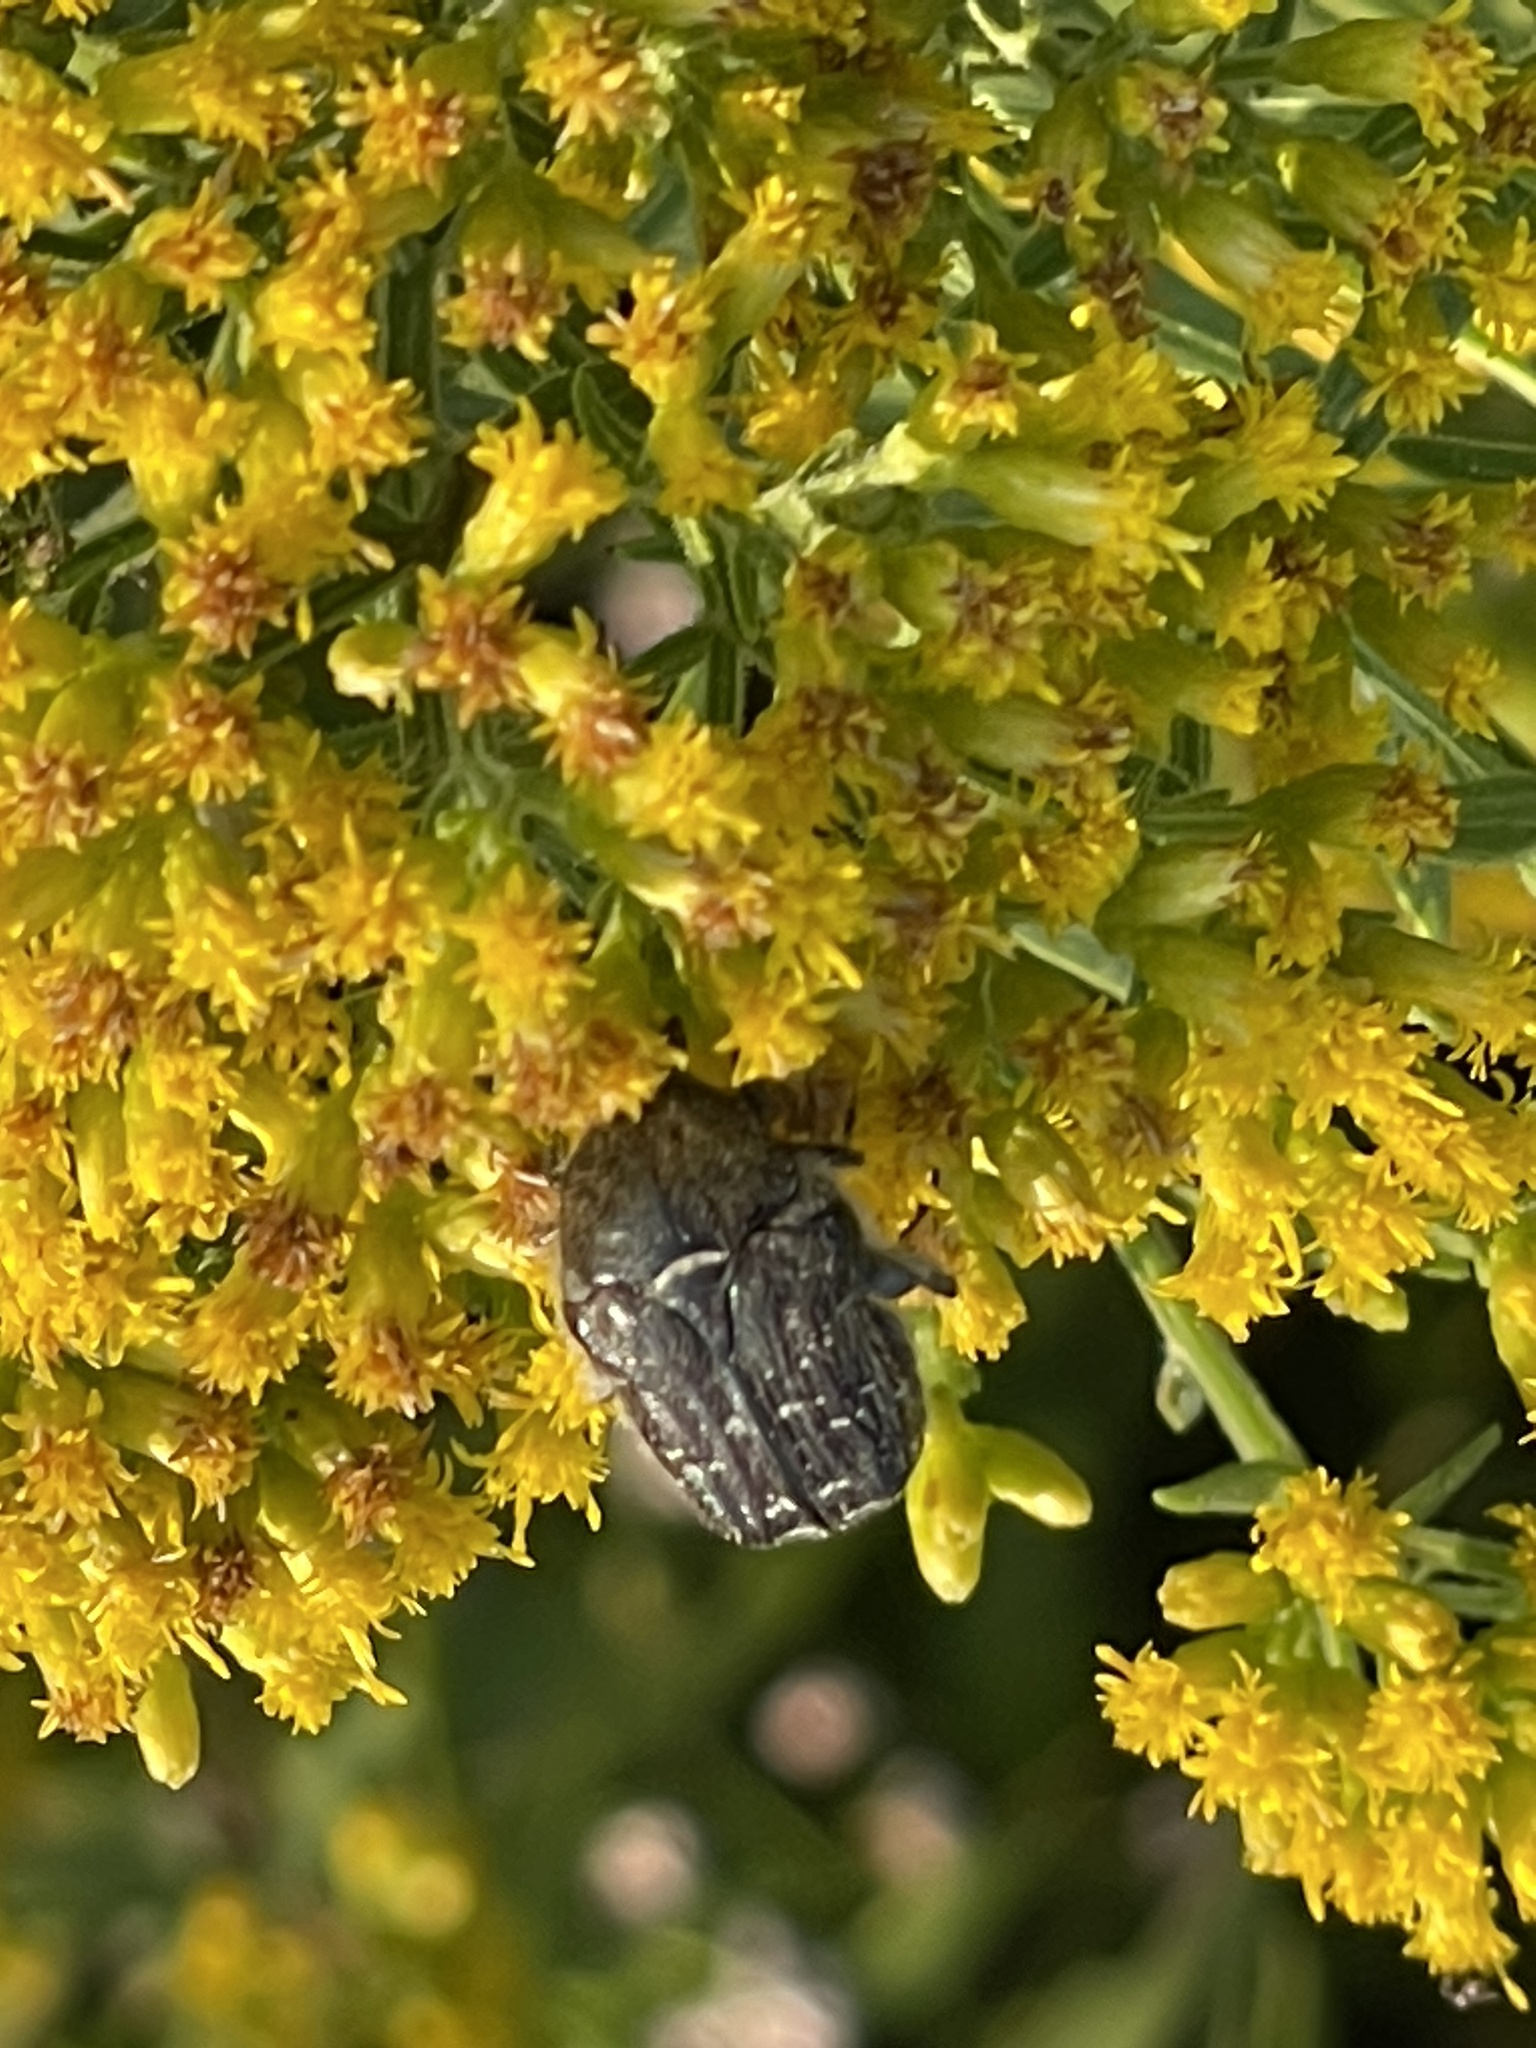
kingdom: Animalia
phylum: Arthropoda
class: Insecta
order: Coleoptera
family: Scarabaeidae
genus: Euphoria
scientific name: Euphoria sepulcralis
